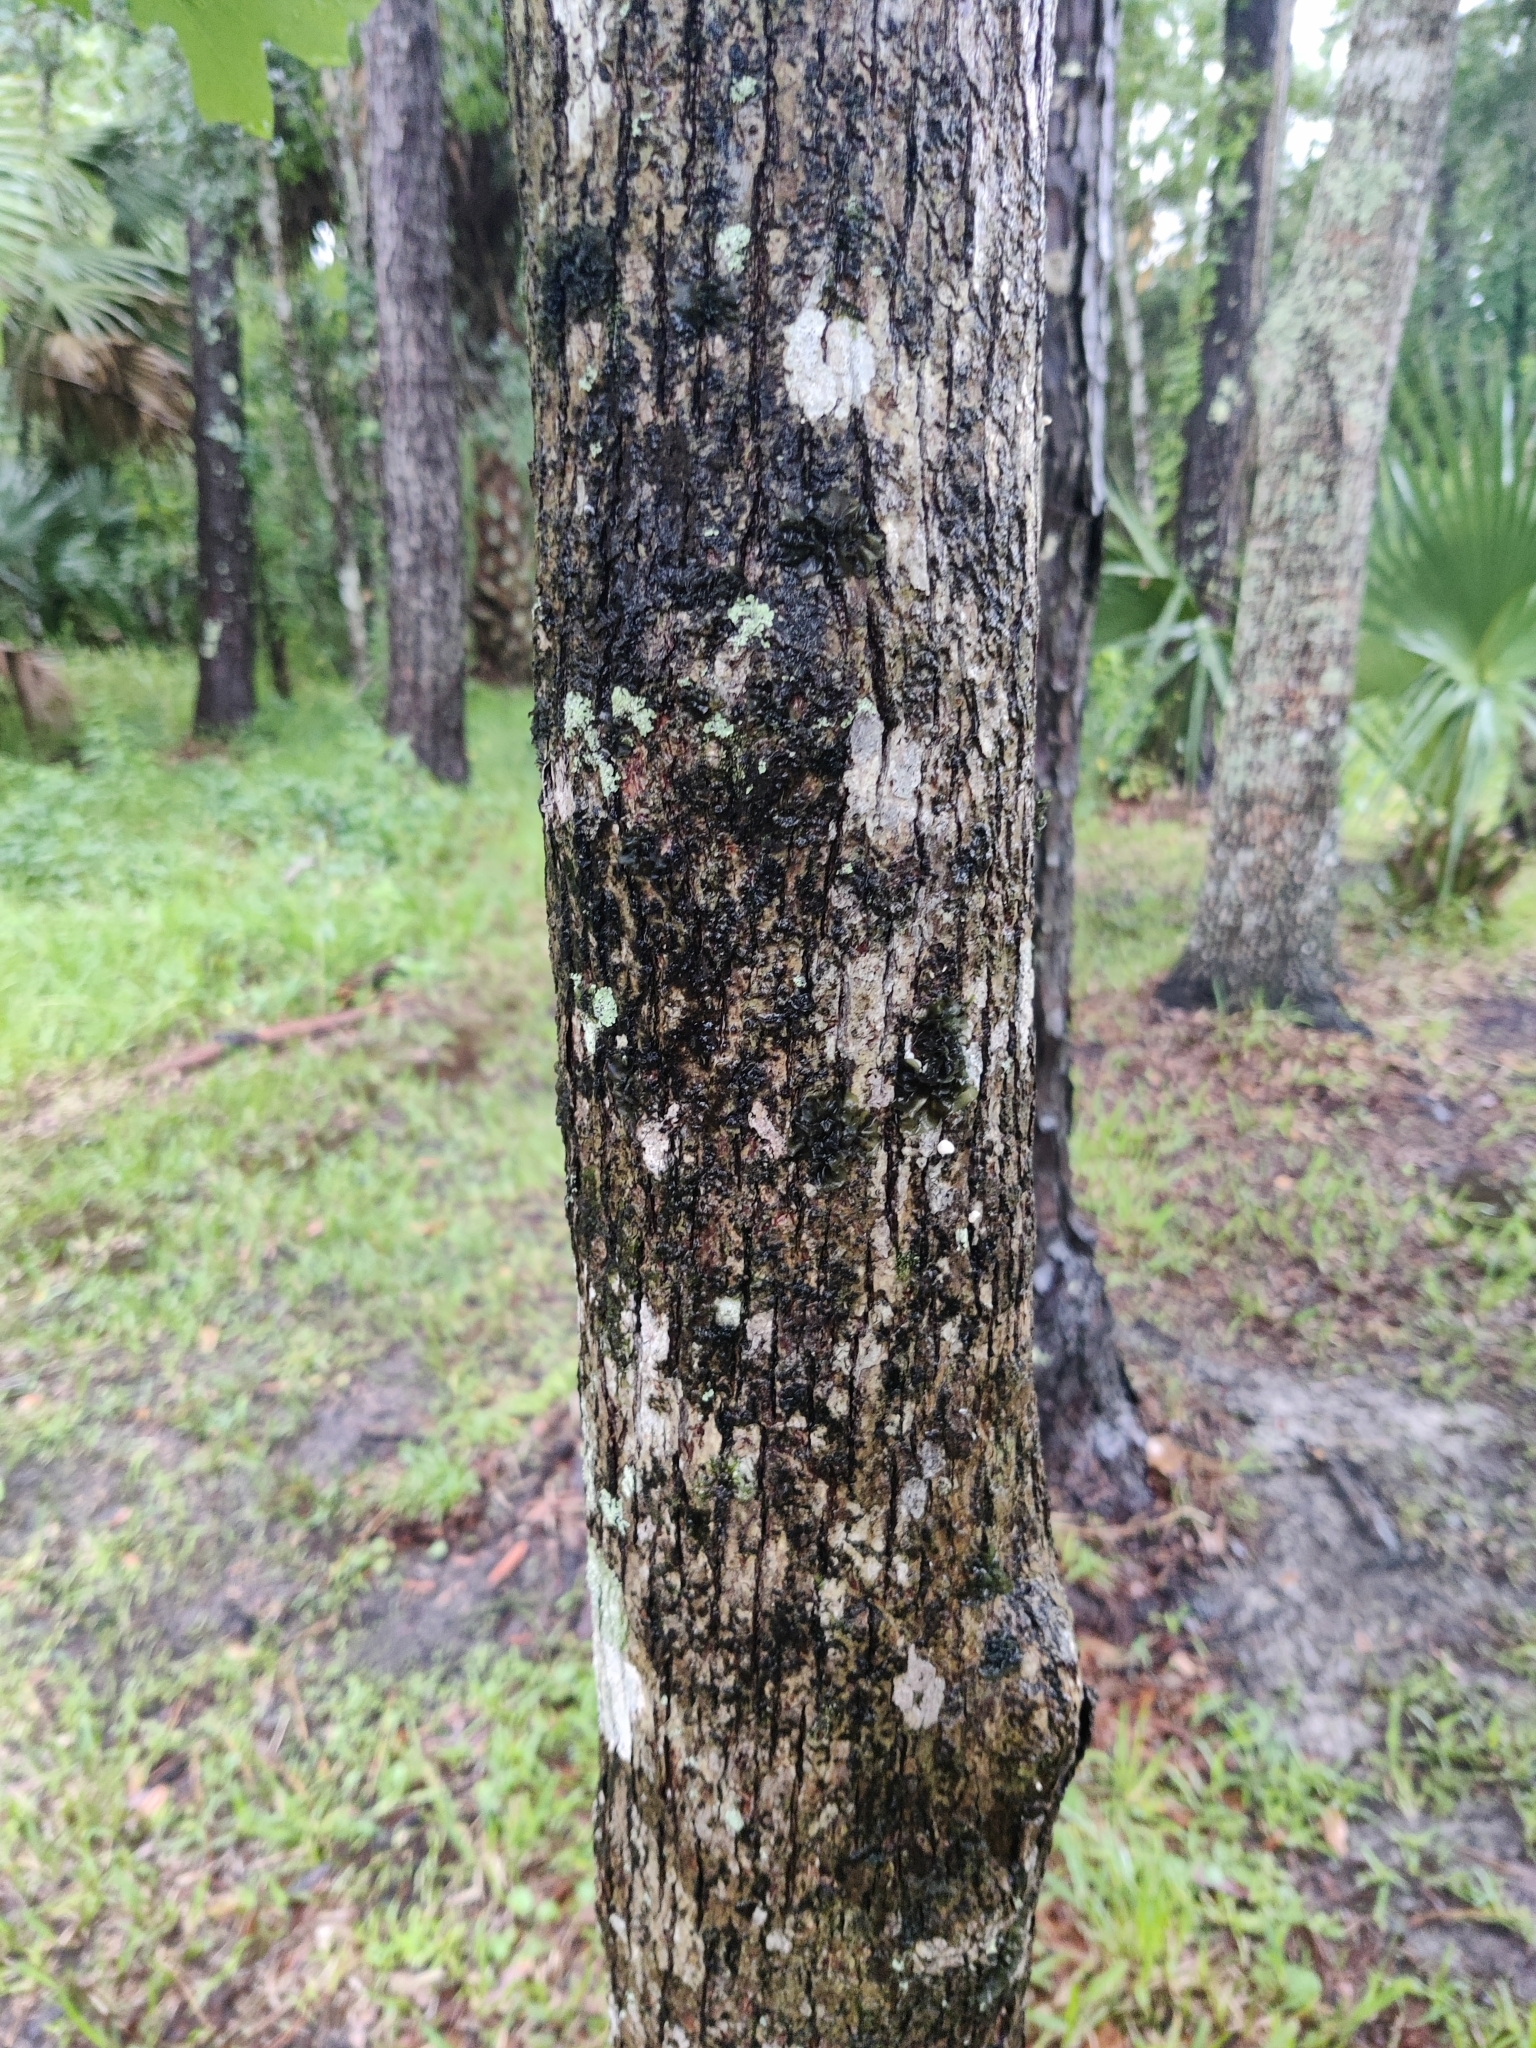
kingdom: Plantae
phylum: Tracheophyta
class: Magnoliopsida
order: Fagales
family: Fagaceae
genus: Quercus
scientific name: Quercus lyrata
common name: Overcup oak
